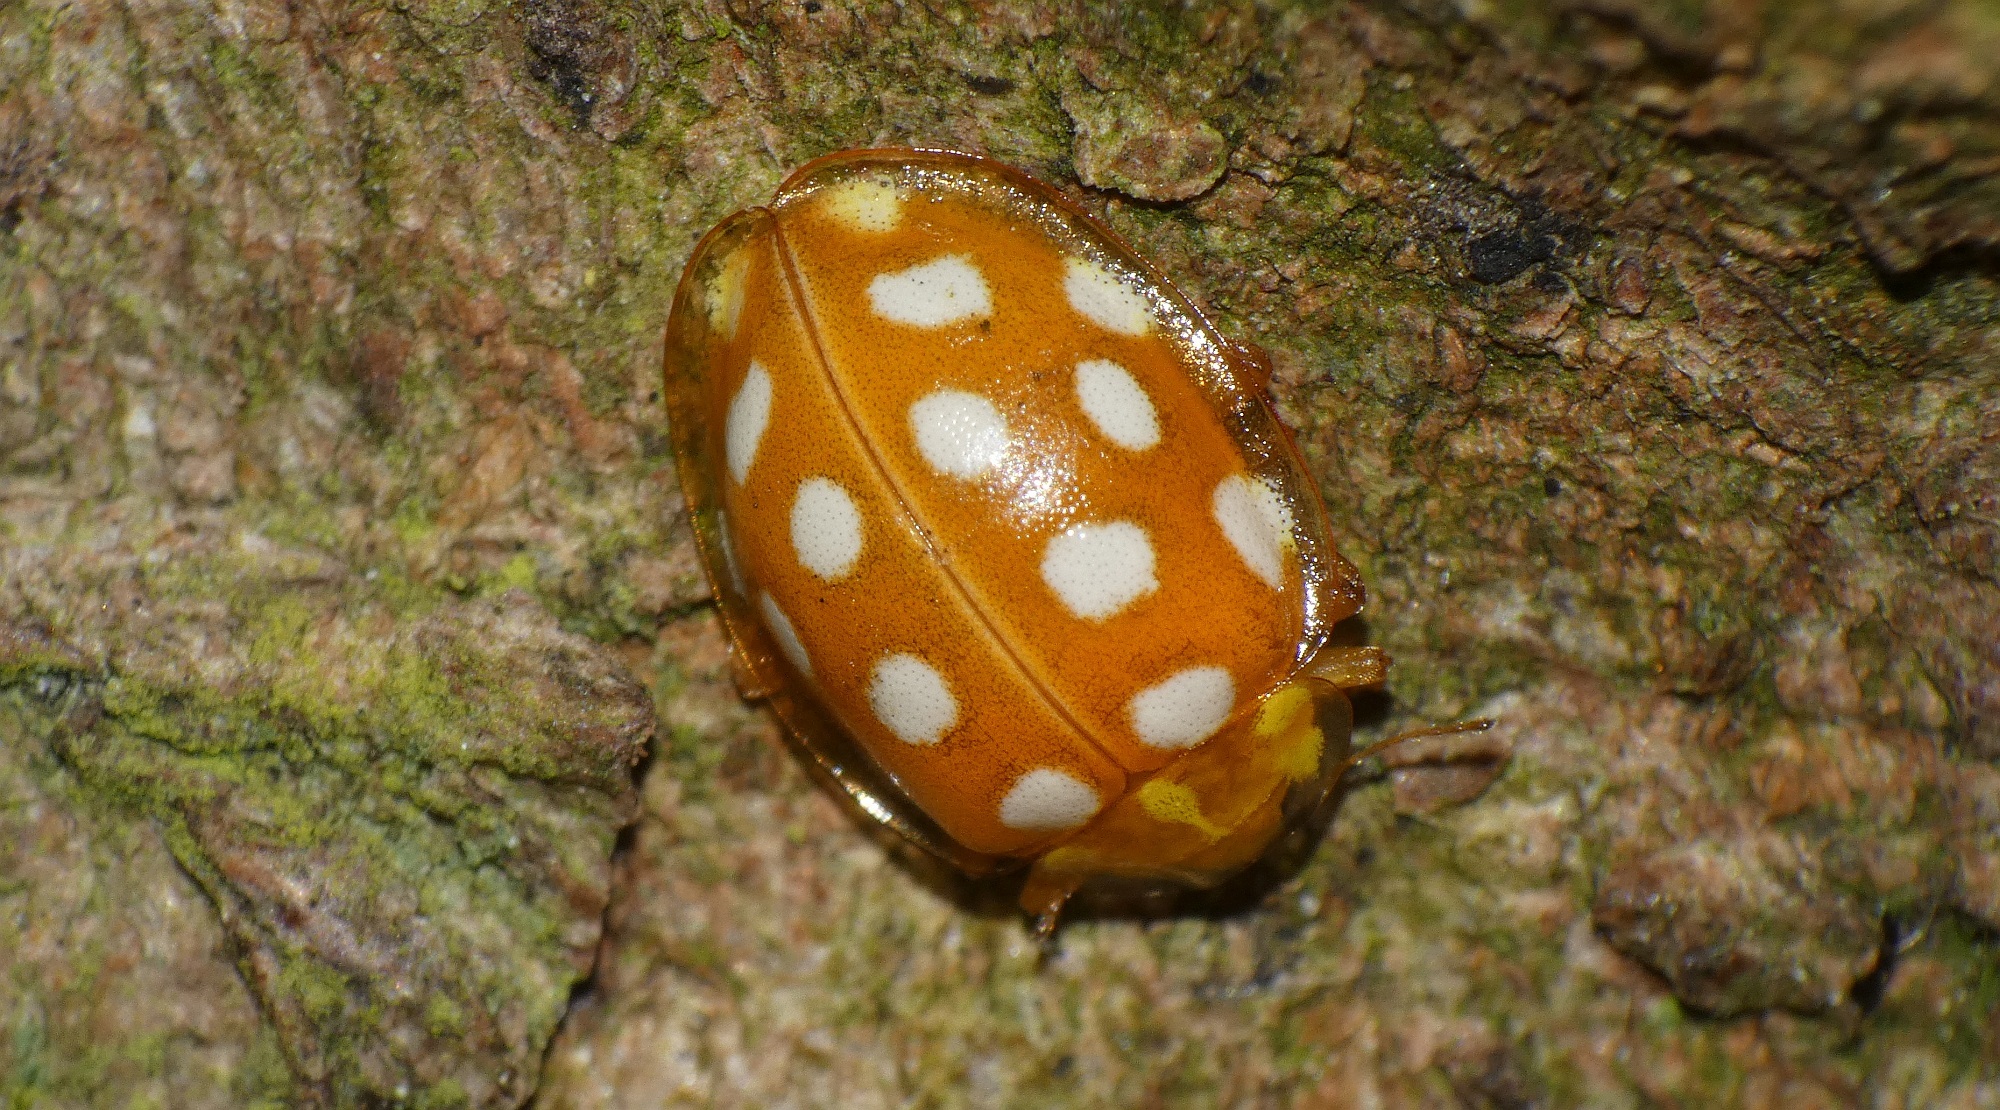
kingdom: Animalia
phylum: Arthropoda
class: Insecta
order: Coleoptera
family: Coccinellidae
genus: Halyzia
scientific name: Halyzia sedecimguttata
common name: Orange ladybird
